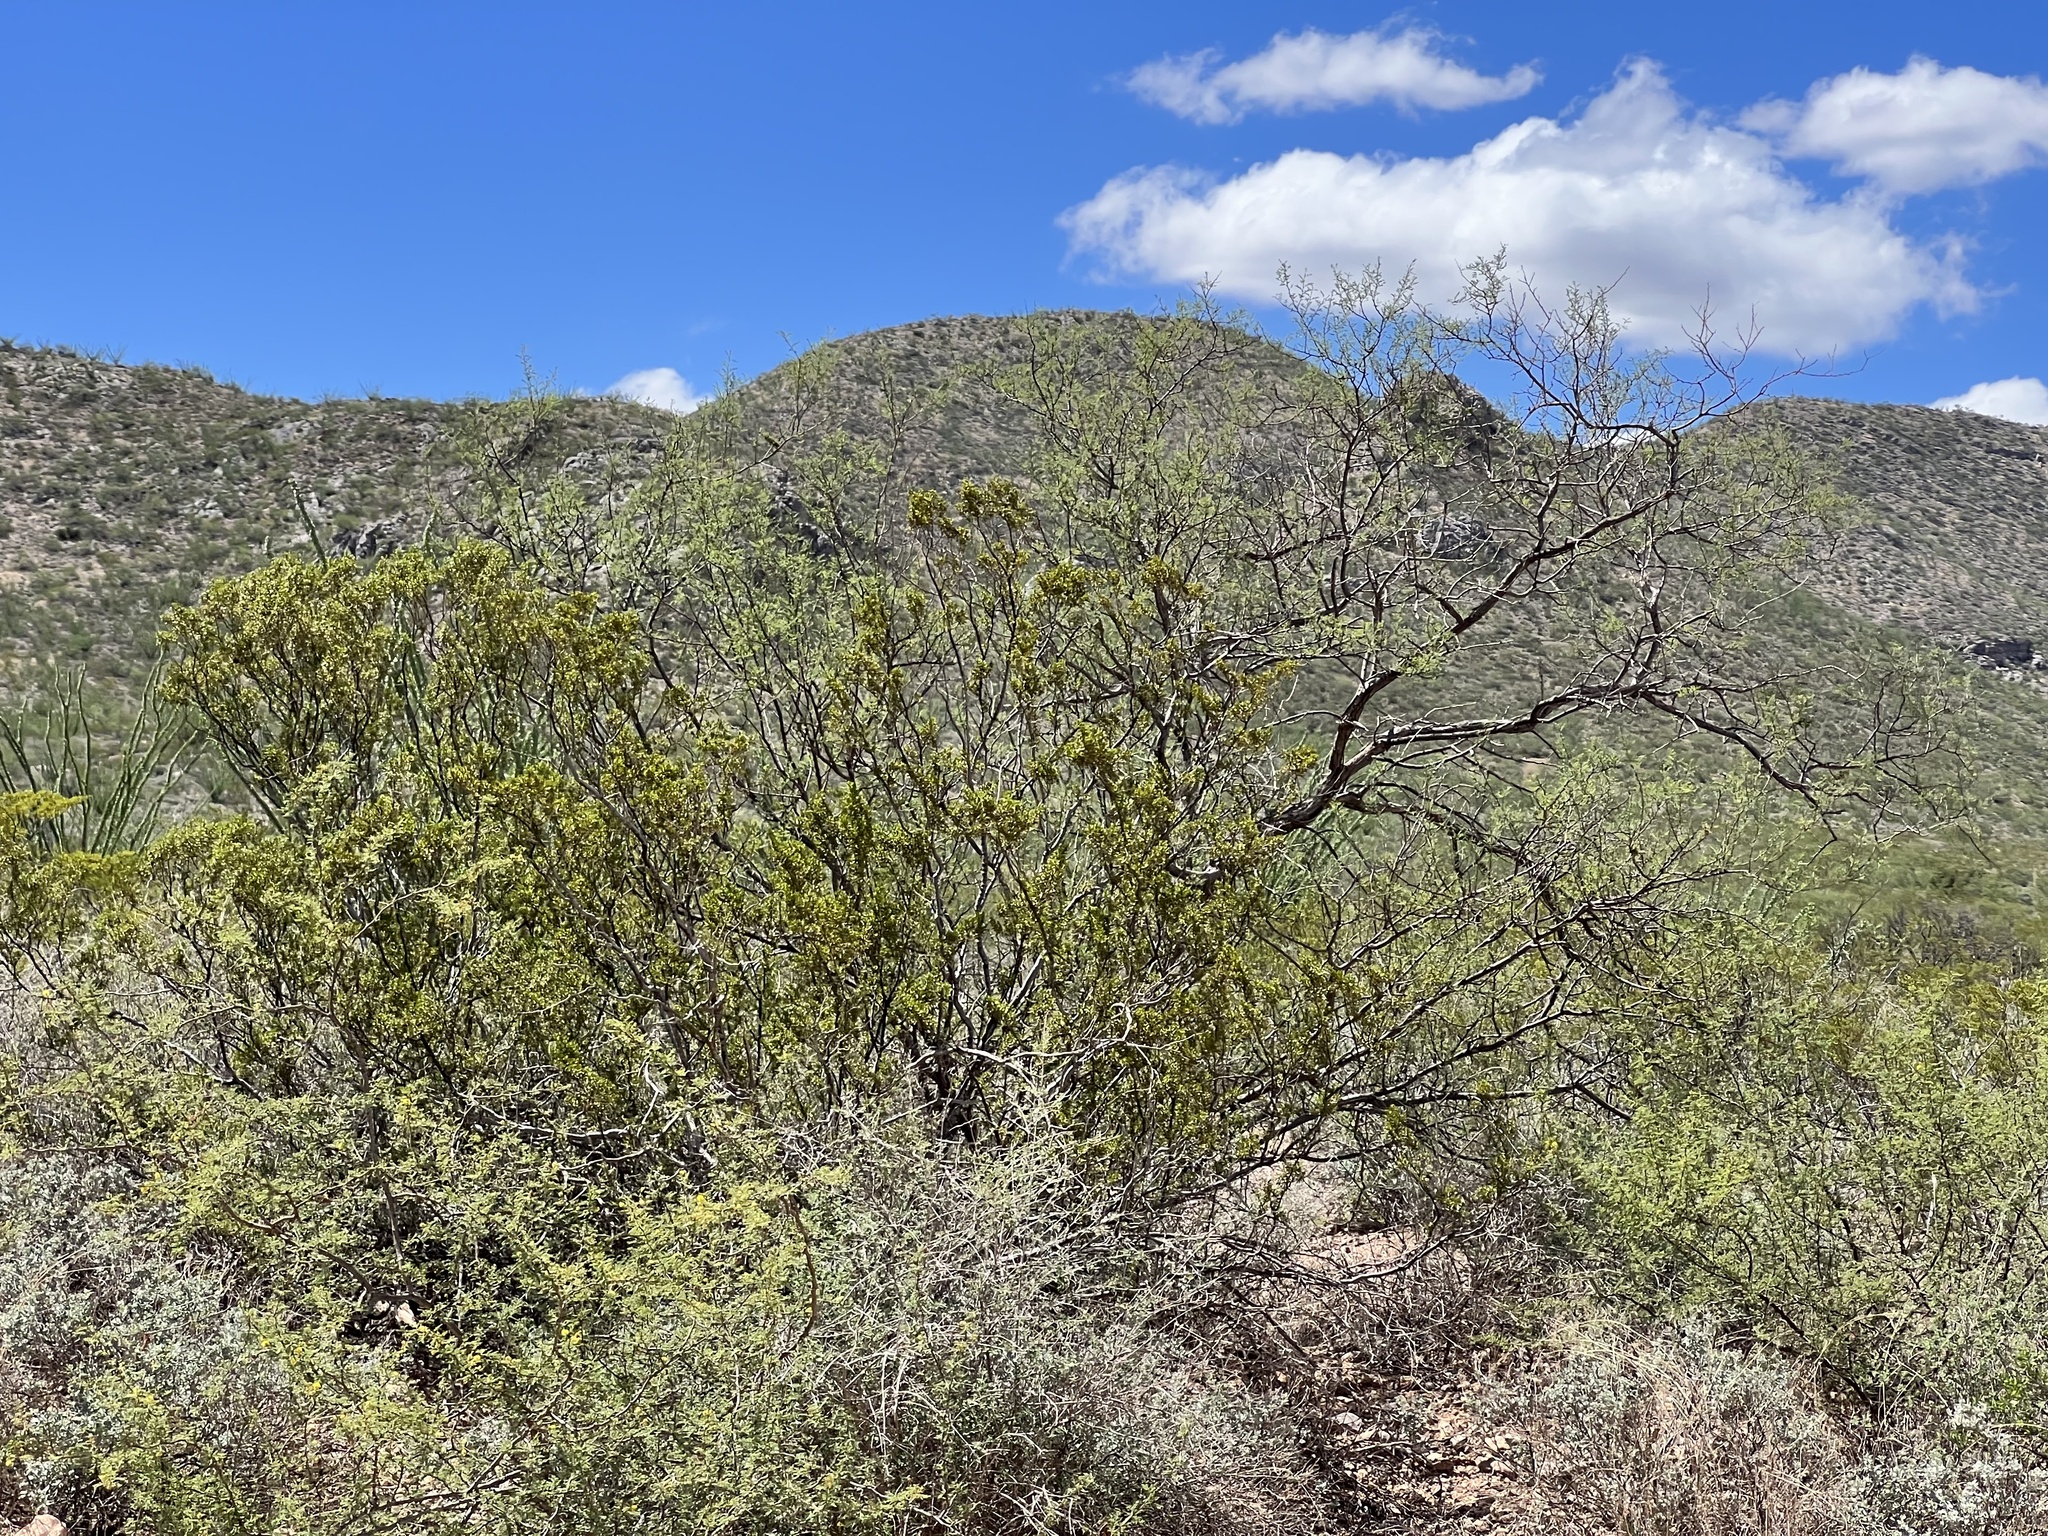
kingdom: Plantae
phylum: Tracheophyta
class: Magnoliopsida
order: Zygophyllales
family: Zygophyllaceae
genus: Larrea
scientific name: Larrea tridentata
